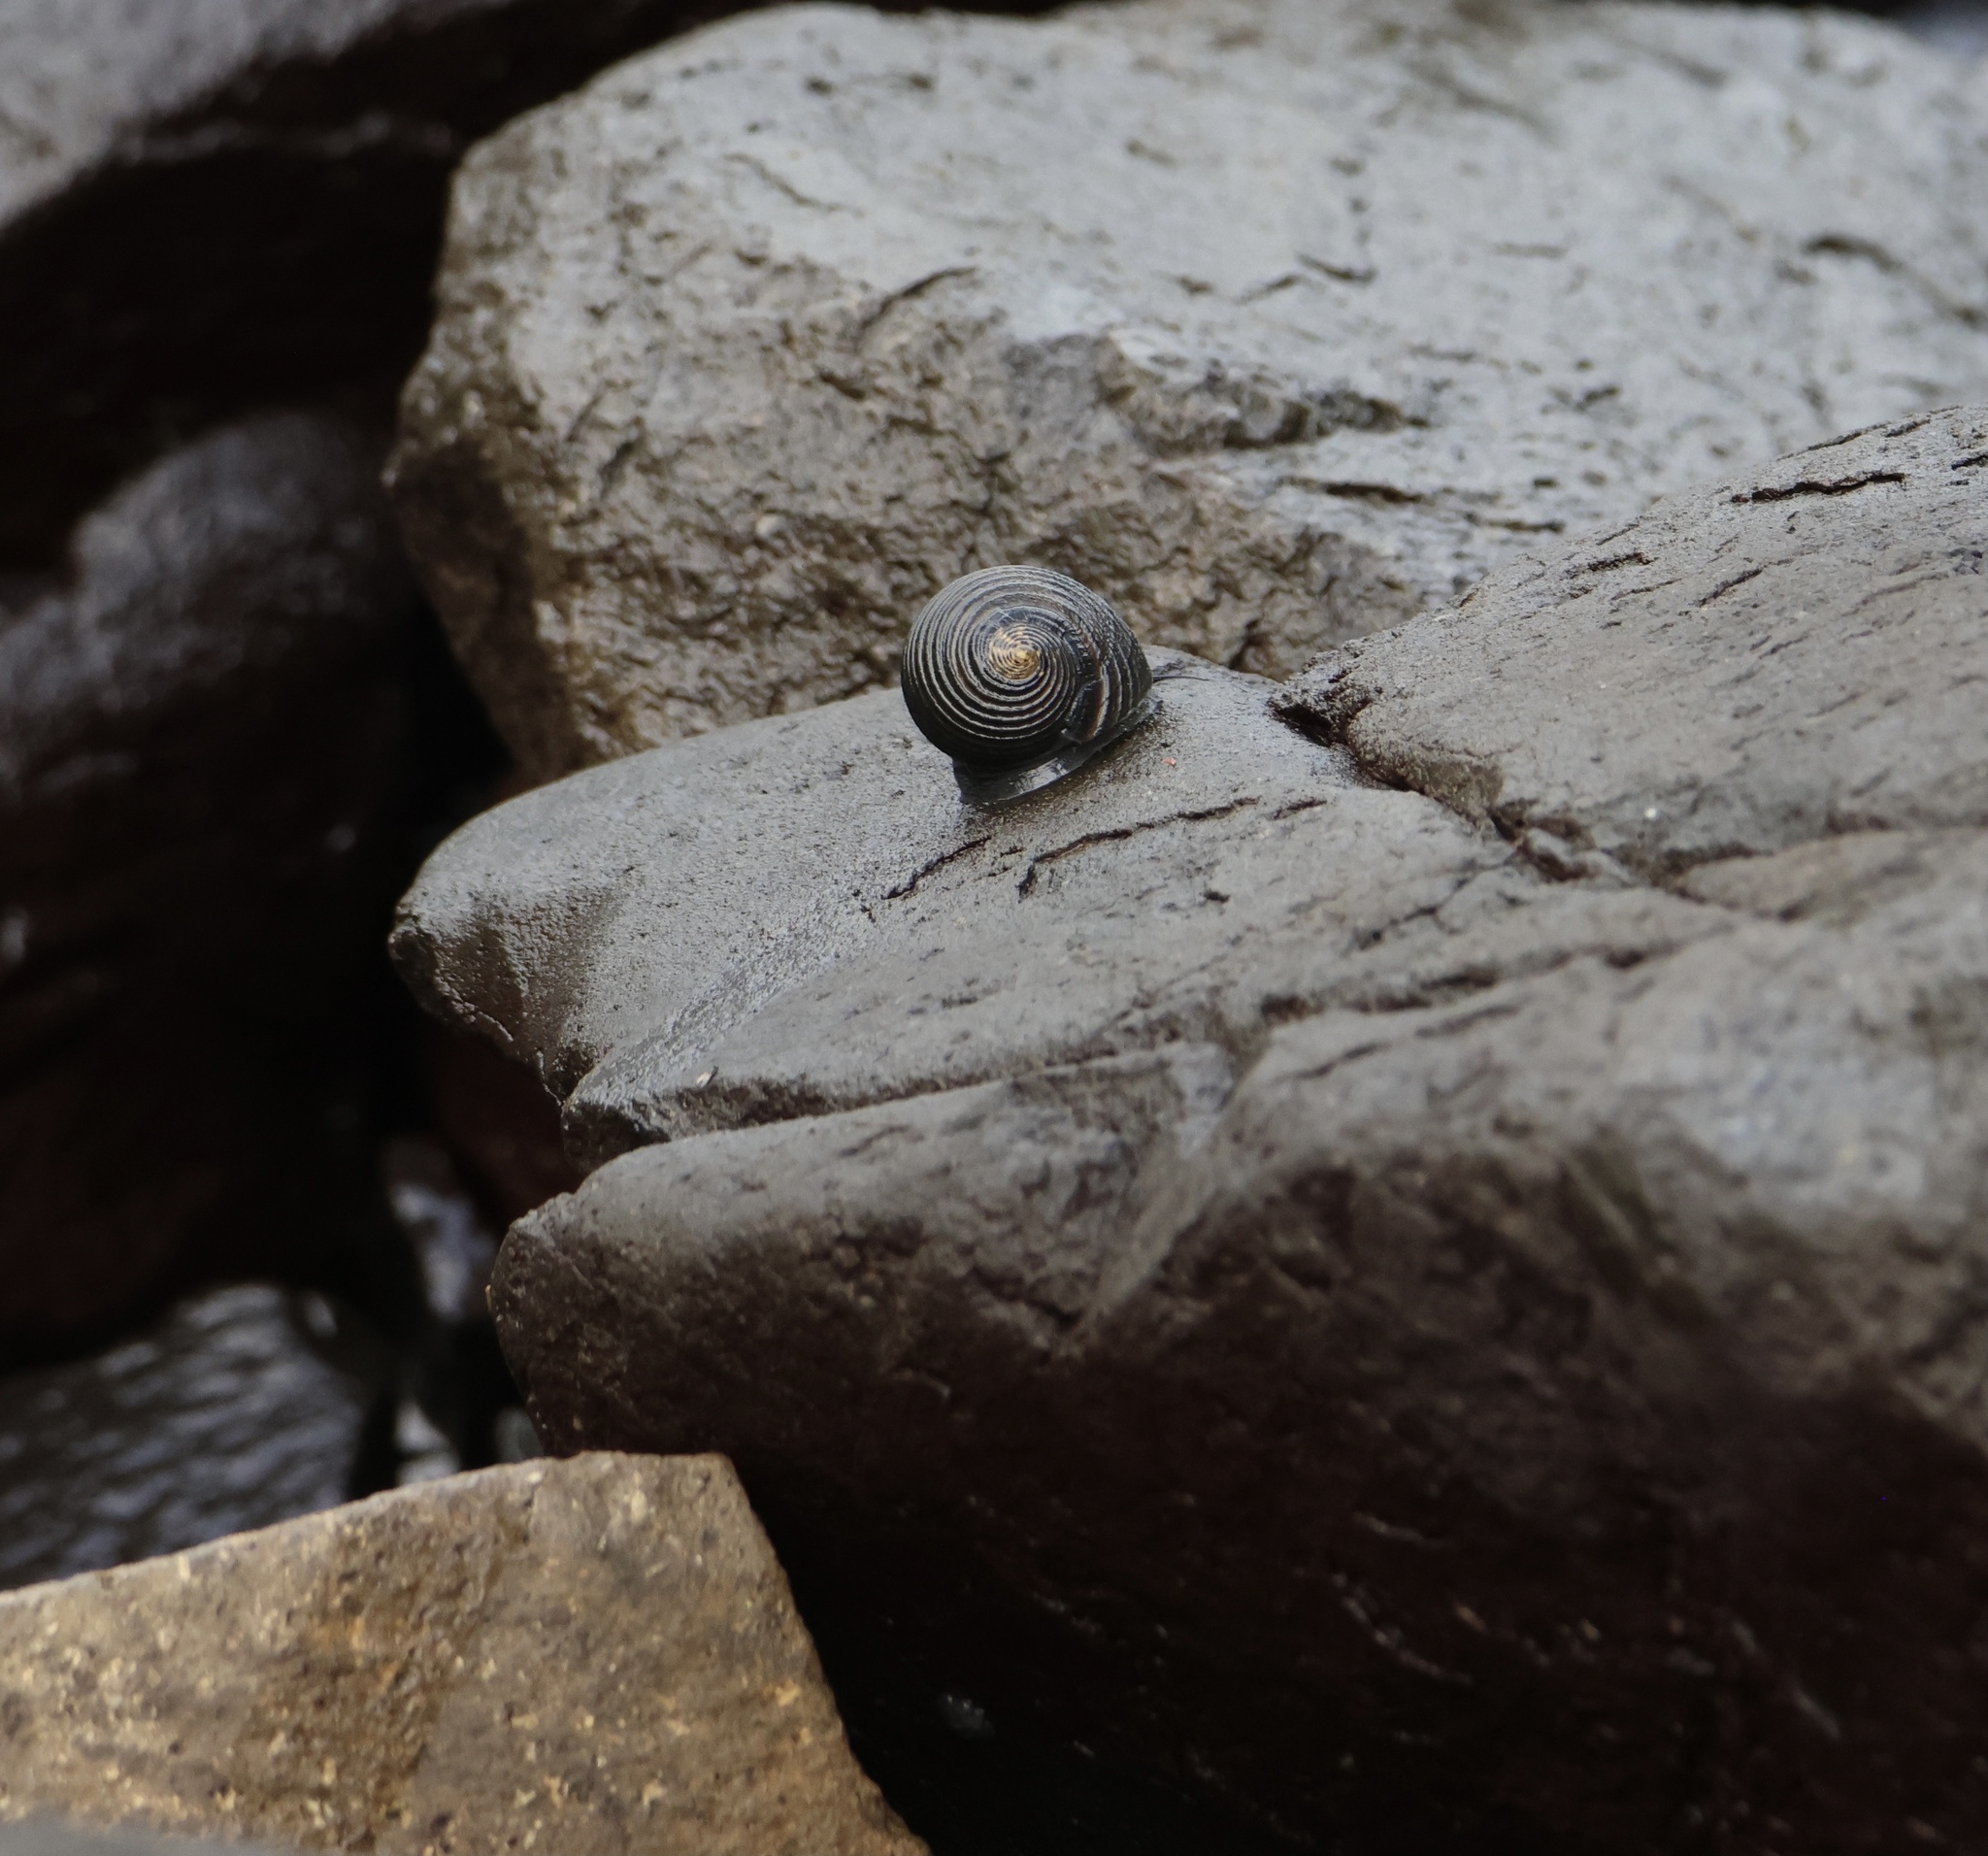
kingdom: Animalia
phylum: Mollusca
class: Gastropoda
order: Cycloneritida
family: Neritidae
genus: Nerita
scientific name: Nerita scabricosta
